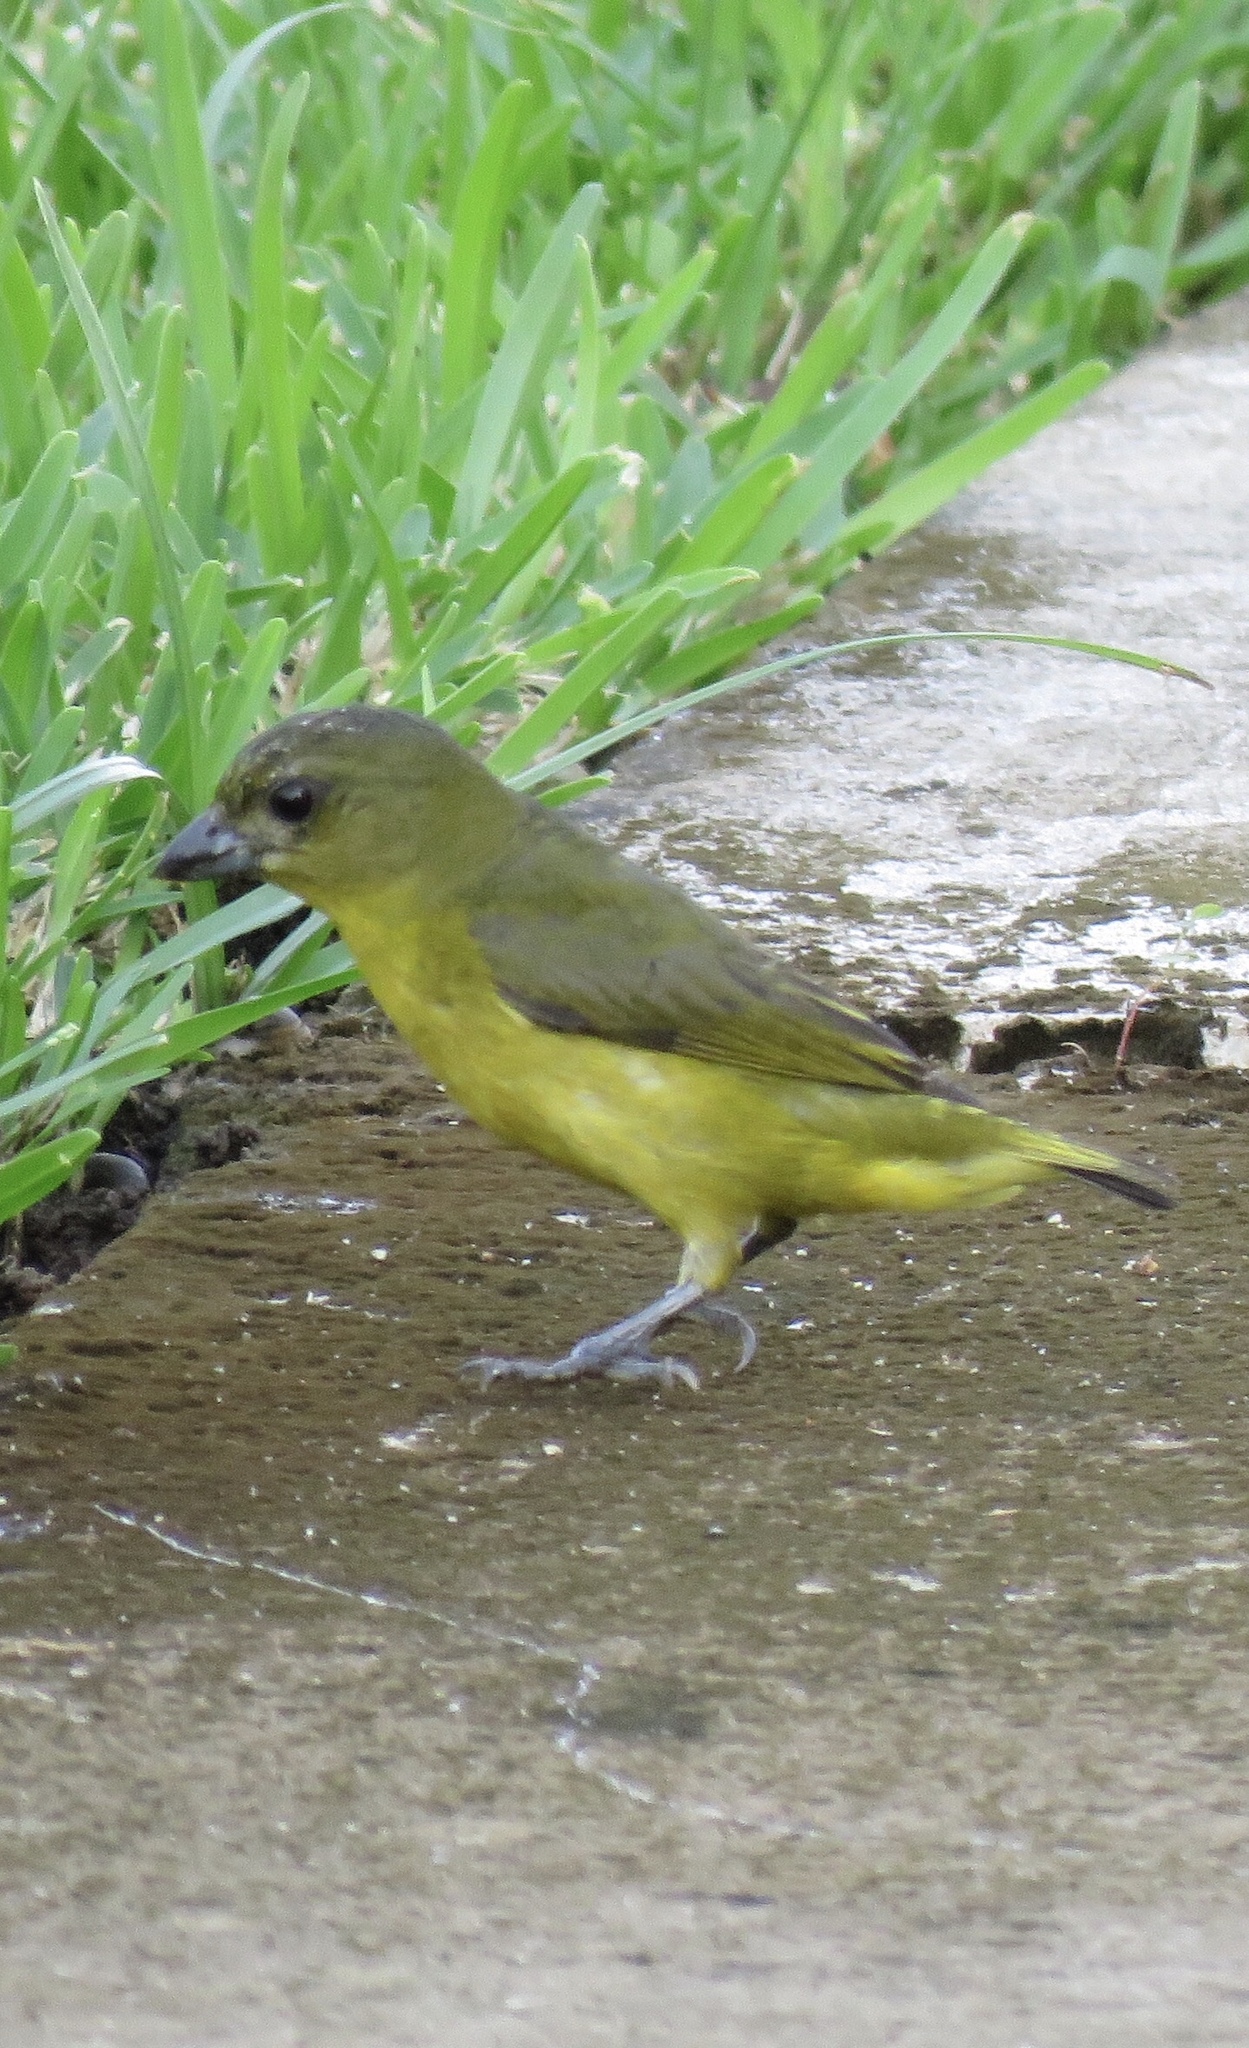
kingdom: Animalia
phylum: Chordata
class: Aves
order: Passeriformes
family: Fringillidae
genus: Euphonia
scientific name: Euphonia laniirostris
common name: Thick-billed euphonia
